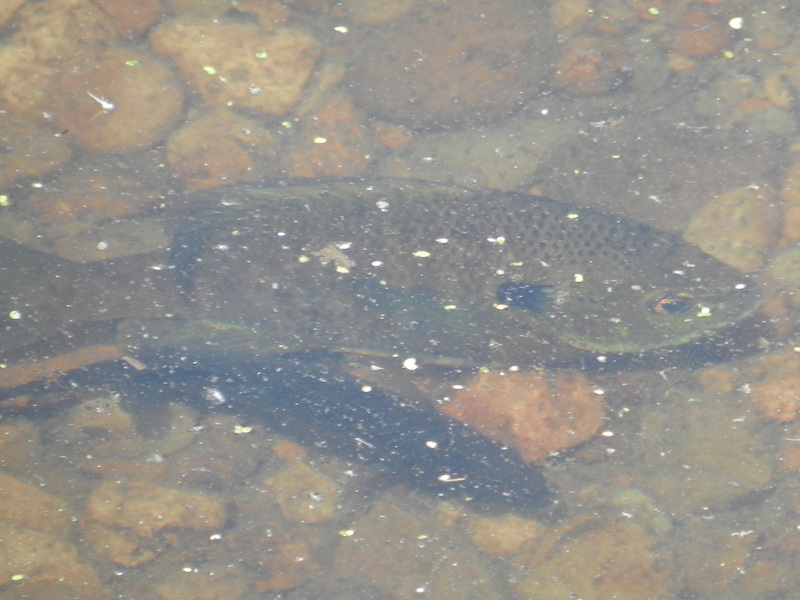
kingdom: Animalia
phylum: Chordata
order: Perciformes
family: Centrarchidae
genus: Lepomis
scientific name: Lepomis macrochirus
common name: Bluegill
